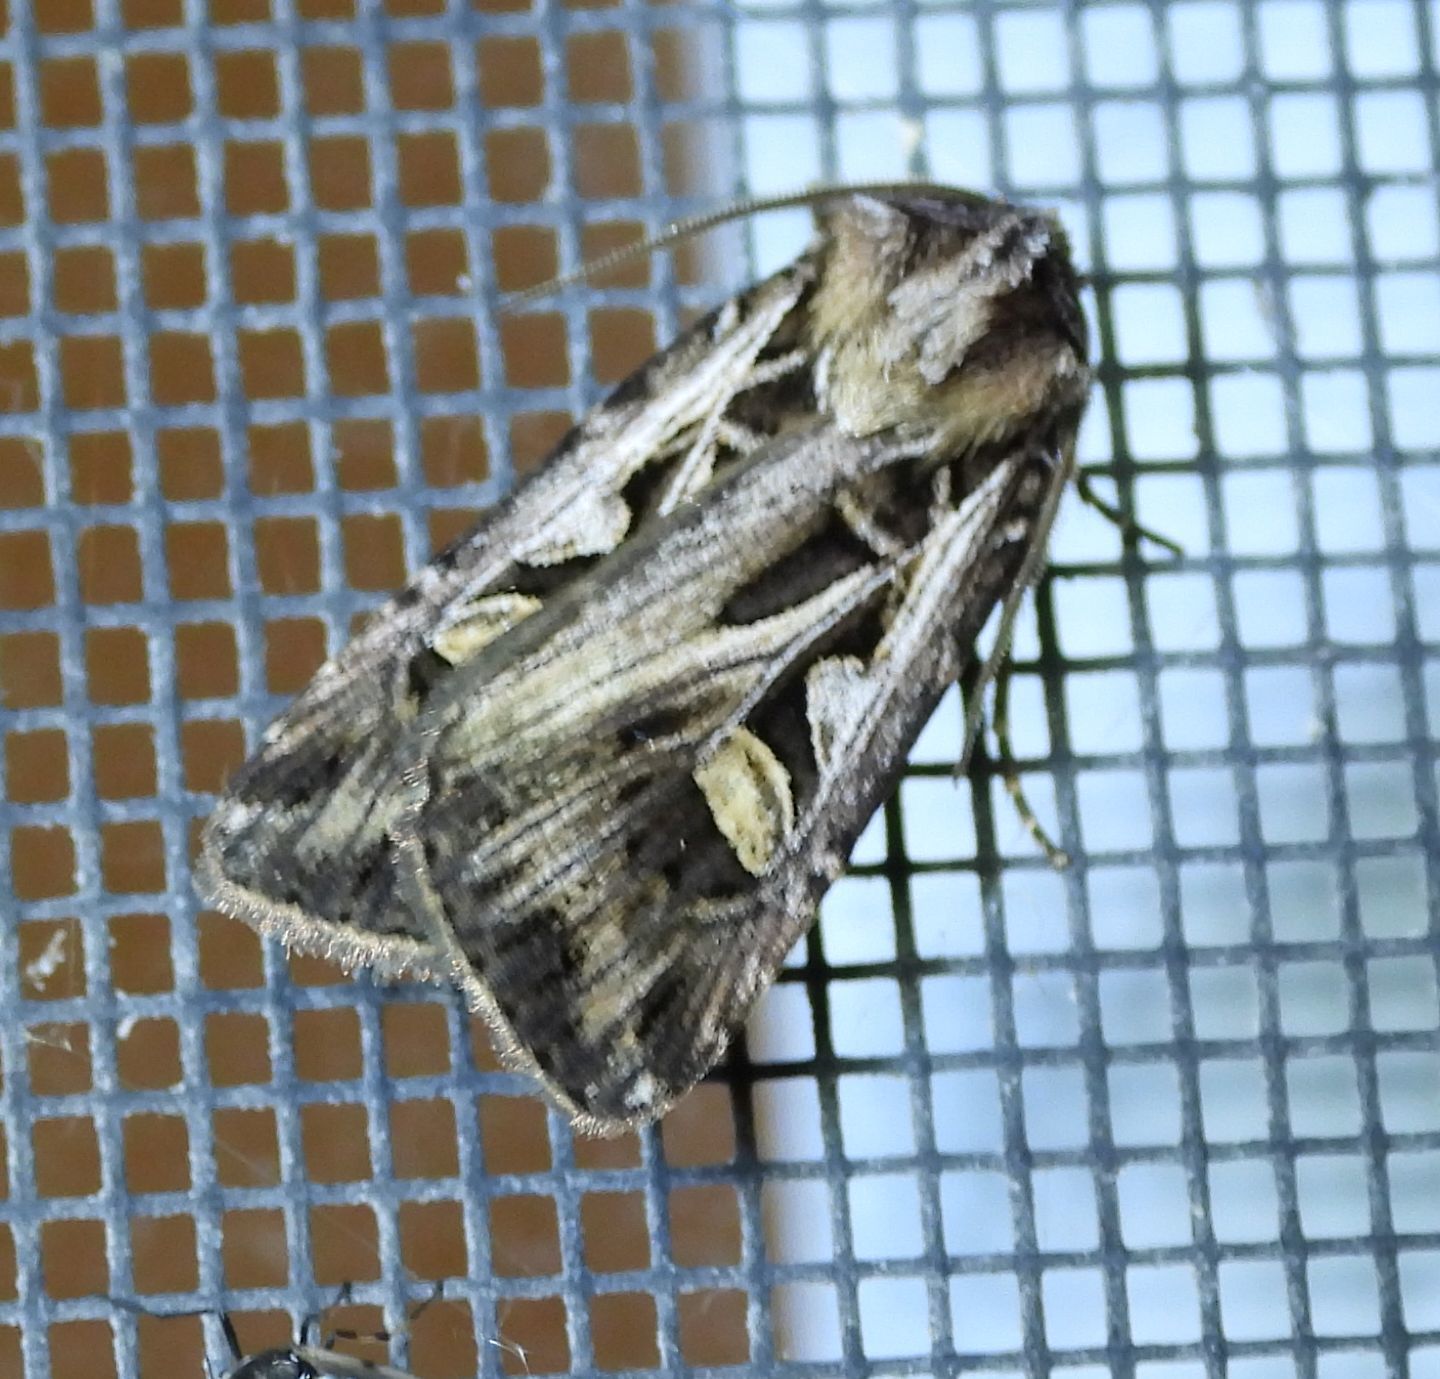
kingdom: Animalia
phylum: Arthropoda
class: Insecta
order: Lepidoptera
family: Noctuidae
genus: Feltia
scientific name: Feltia jaculifera
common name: Dingy cutworm moth
